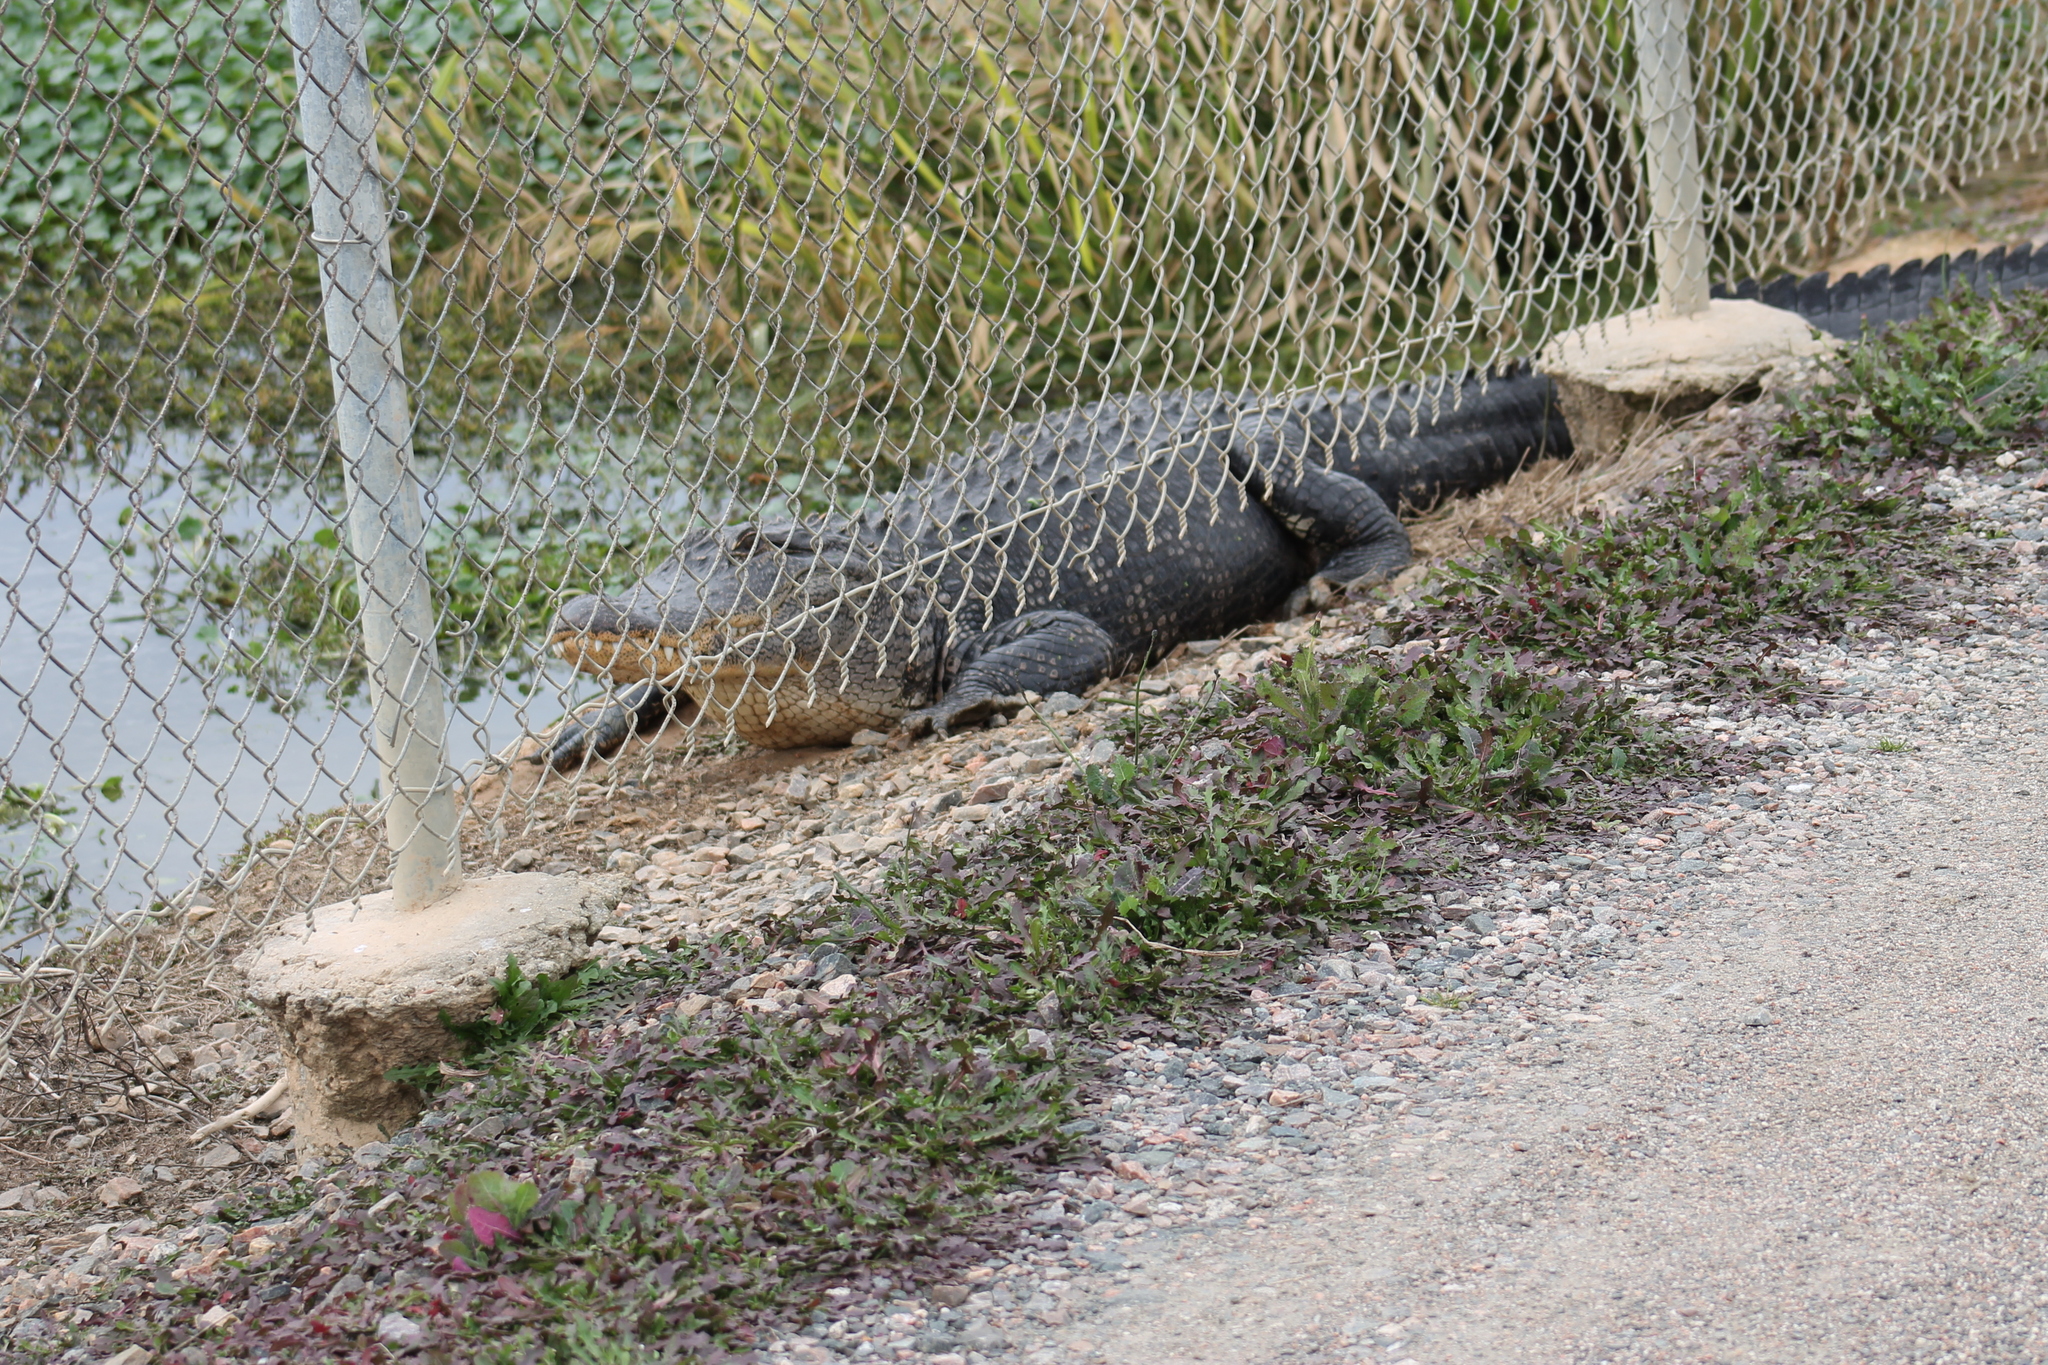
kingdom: Animalia
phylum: Chordata
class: Crocodylia
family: Alligatoridae
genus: Alligator
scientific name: Alligator mississippiensis
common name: American alligator
